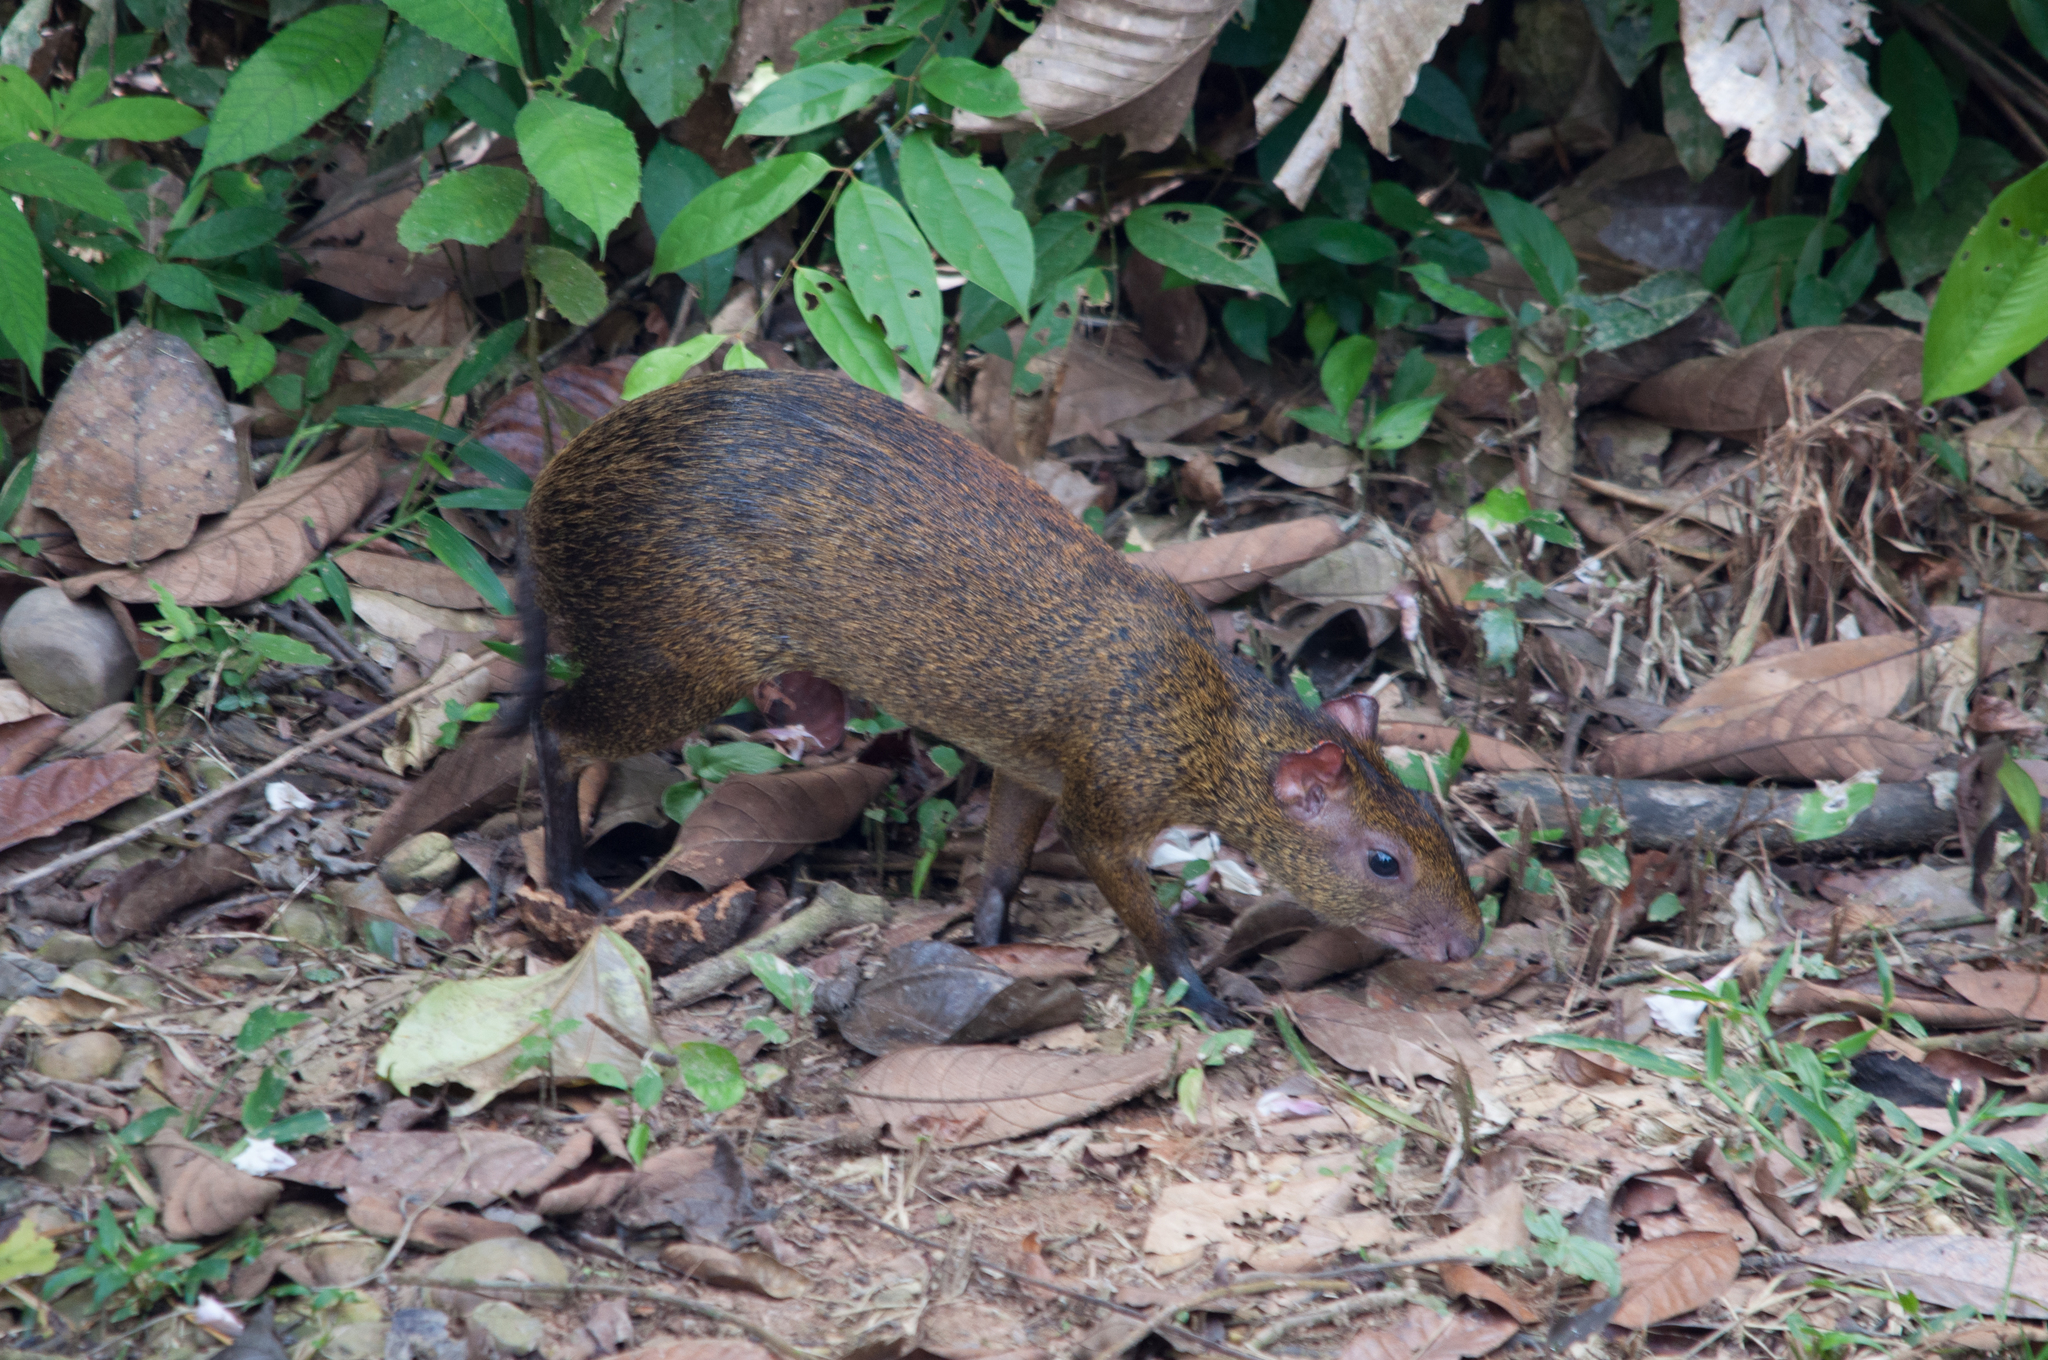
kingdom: Animalia
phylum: Chordata
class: Mammalia
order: Rodentia
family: Dasyproctidae
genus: Dasyprocta
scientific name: Dasyprocta variegata
